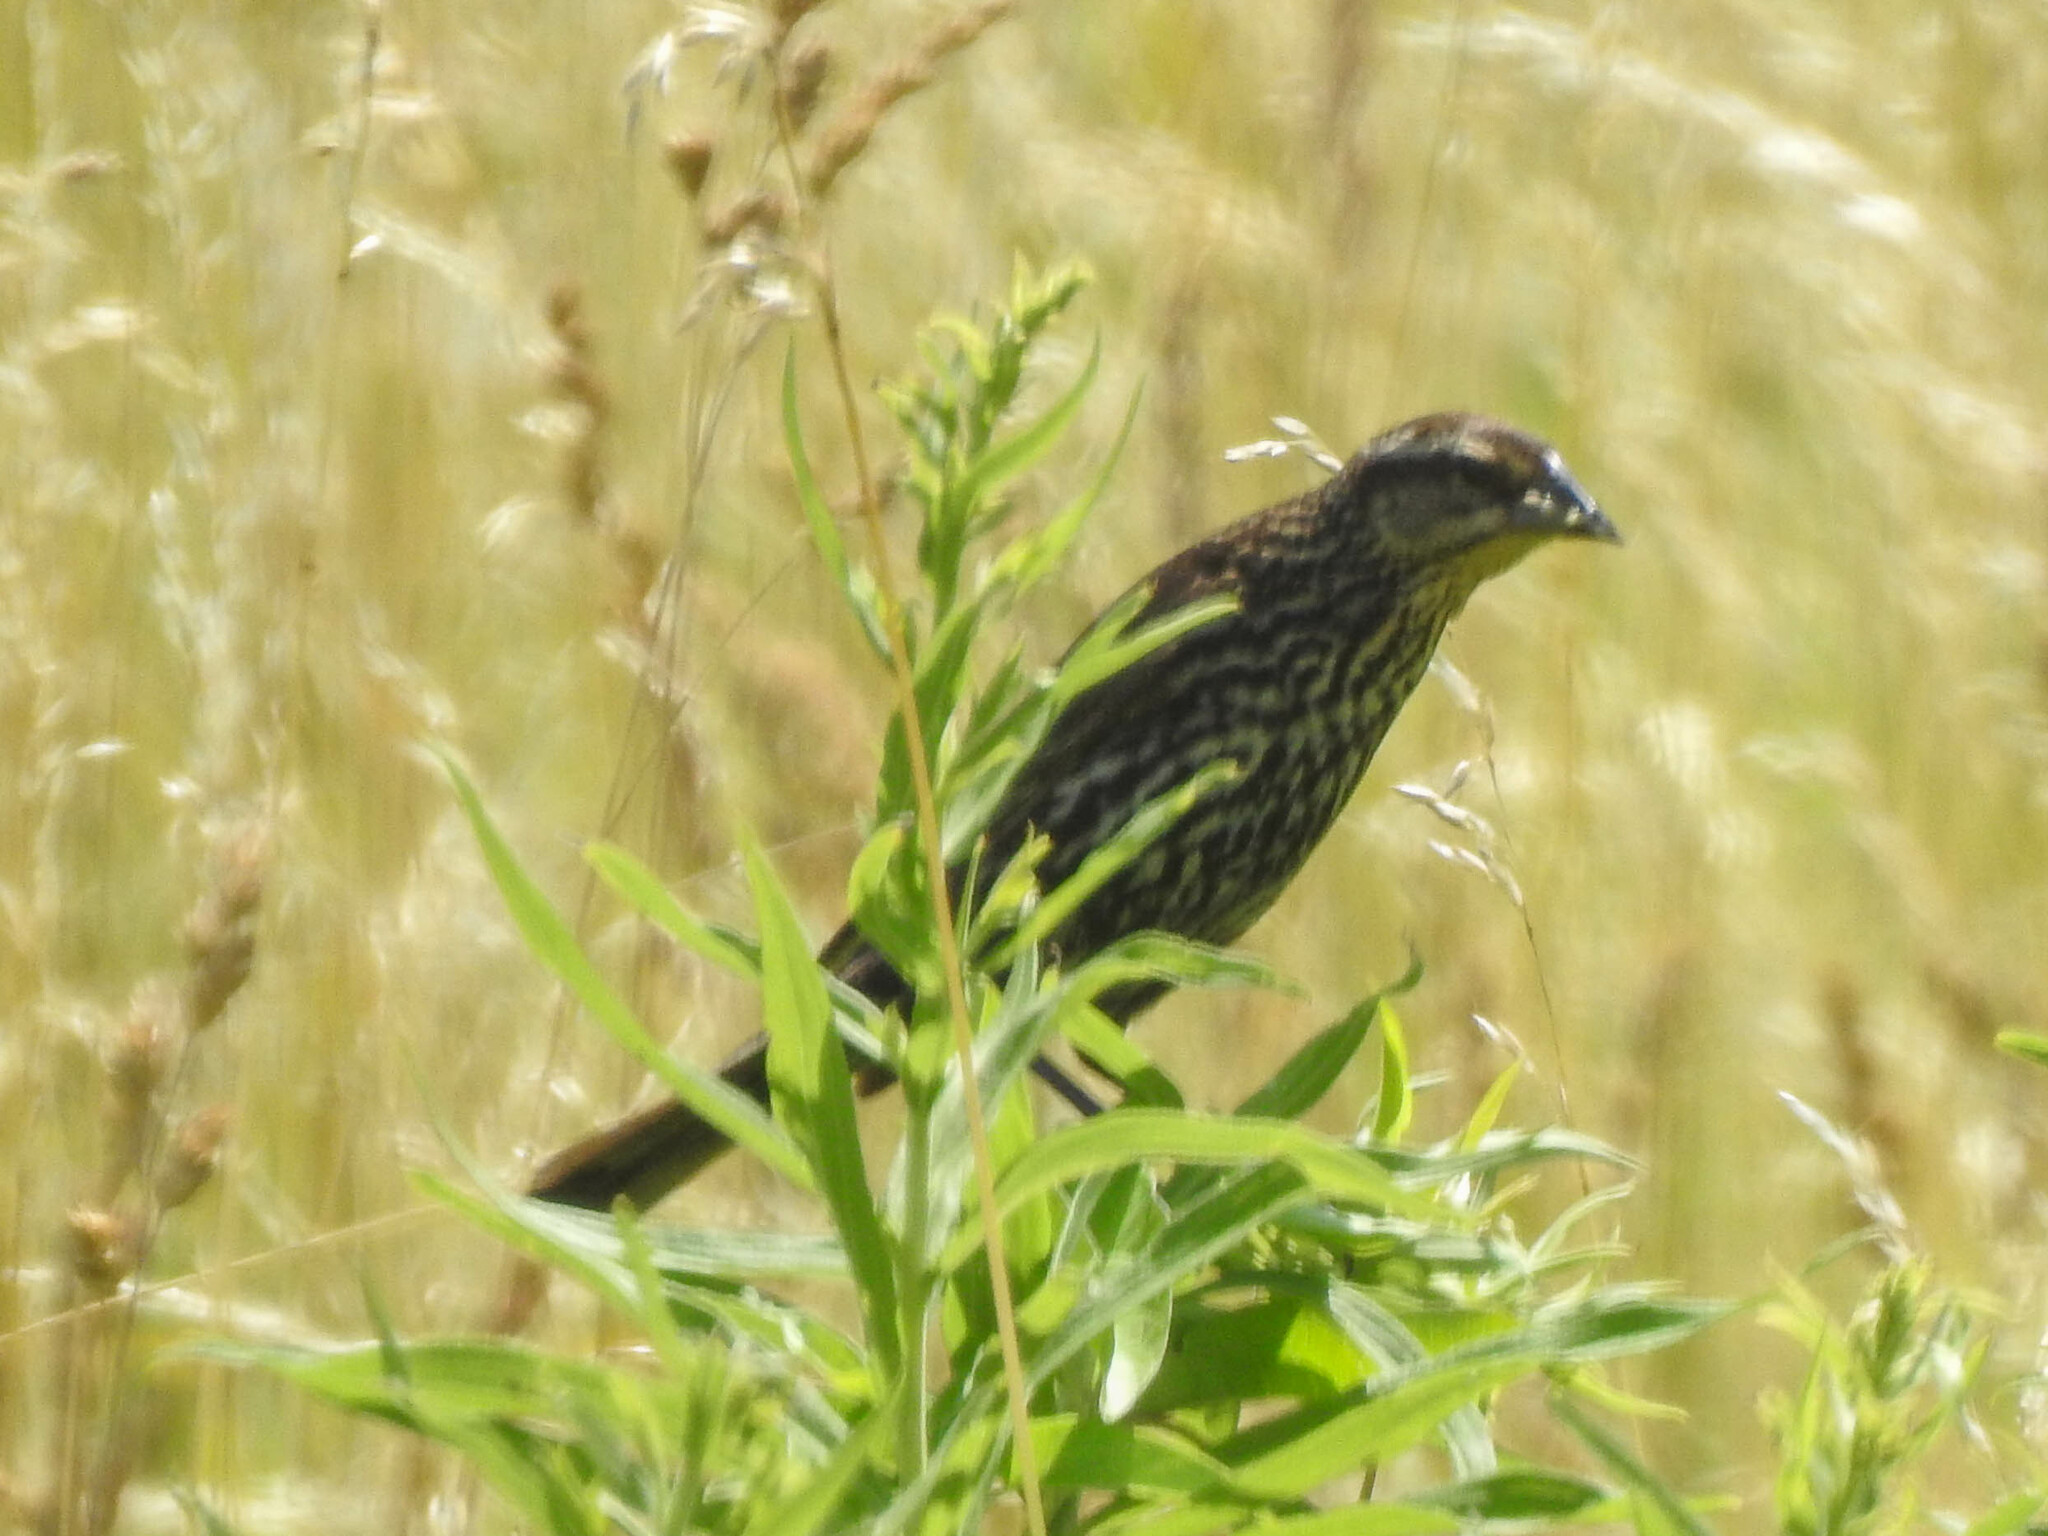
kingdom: Animalia
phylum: Chordata
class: Aves
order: Passeriformes
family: Icteridae
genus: Agelaius
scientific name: Agelaius phoeniceus
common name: Red-winged blackbird
